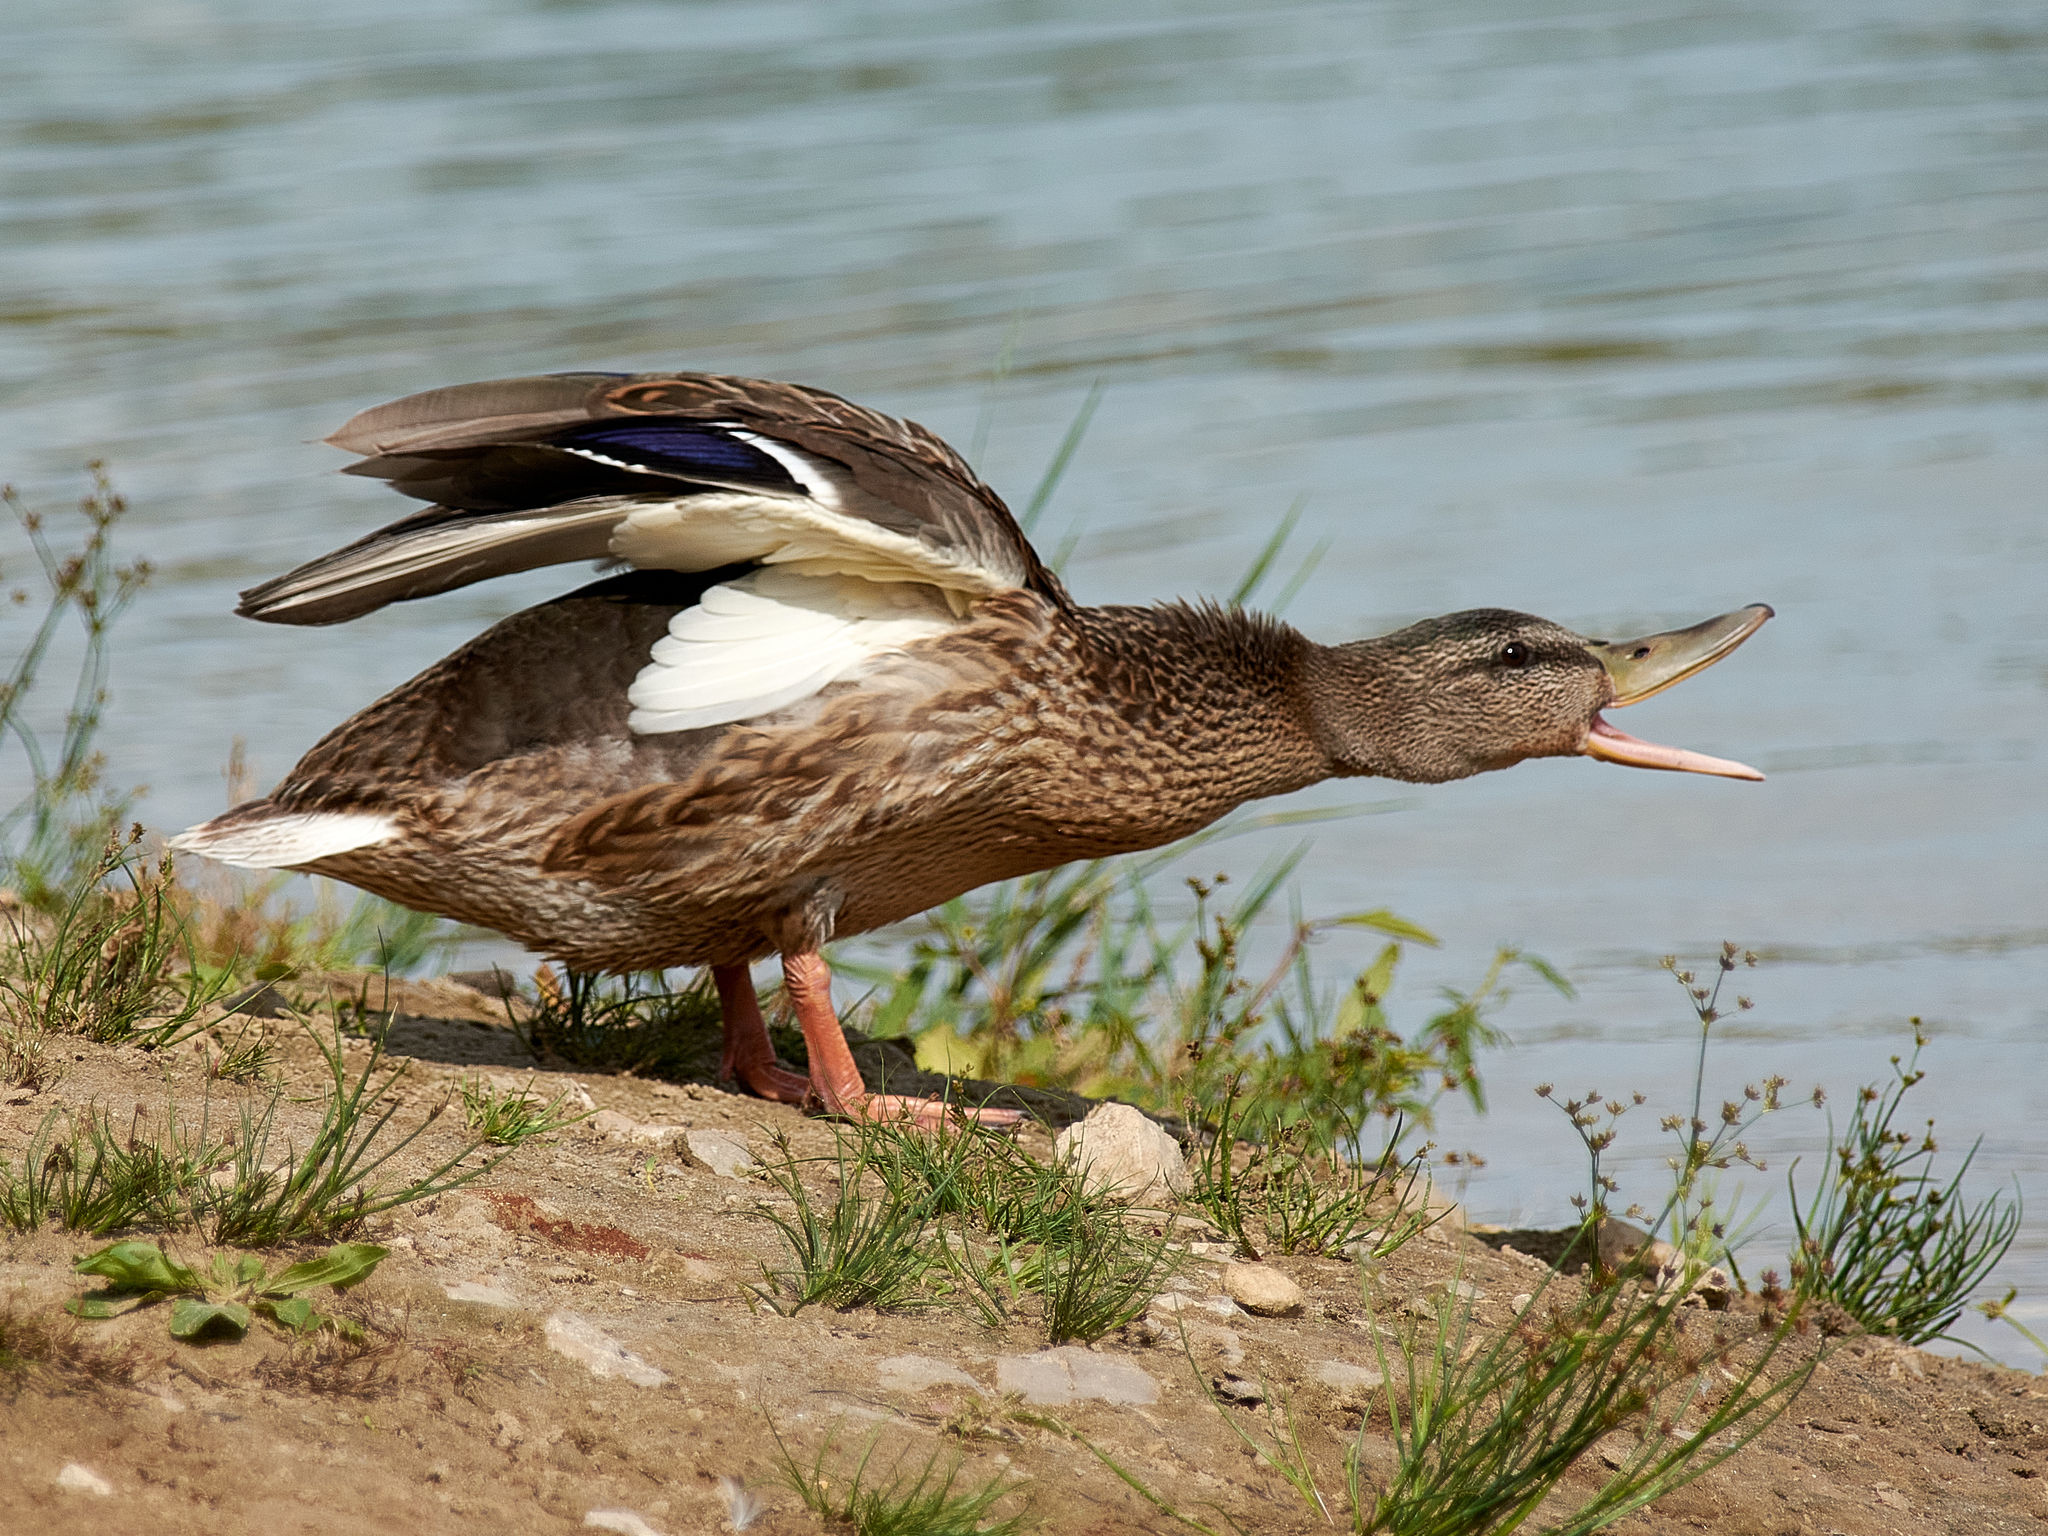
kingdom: Animalia
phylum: Chordata
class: Aves
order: Anseriformes
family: Anatidae
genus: Anas
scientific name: Anas platyrhynchos
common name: Mallard
